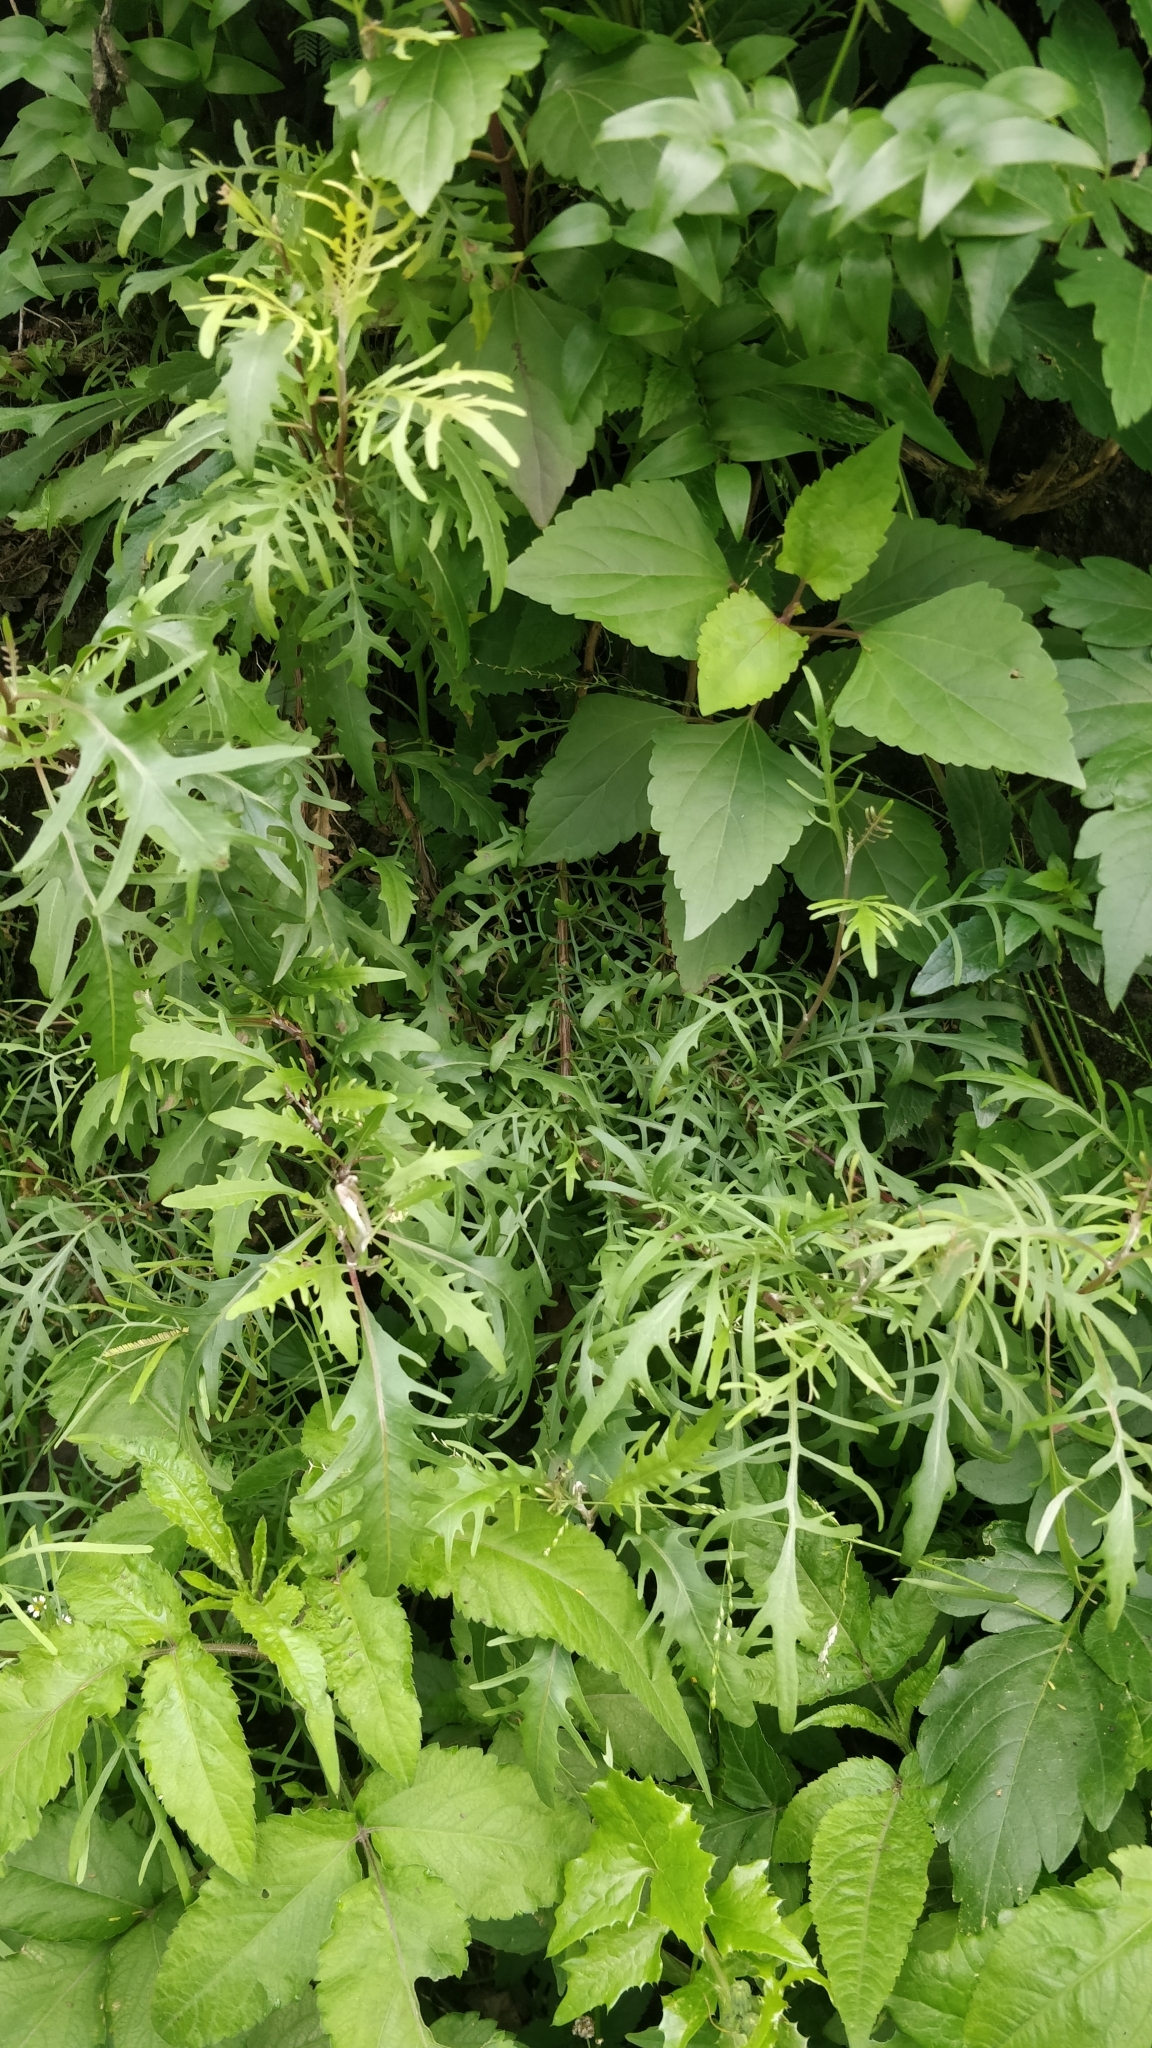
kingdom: Plantae
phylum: Tracheophyta
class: Magnoliopsida
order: Asterales
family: Asteraceae
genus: Tolpis
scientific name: Tolpis succulenta
